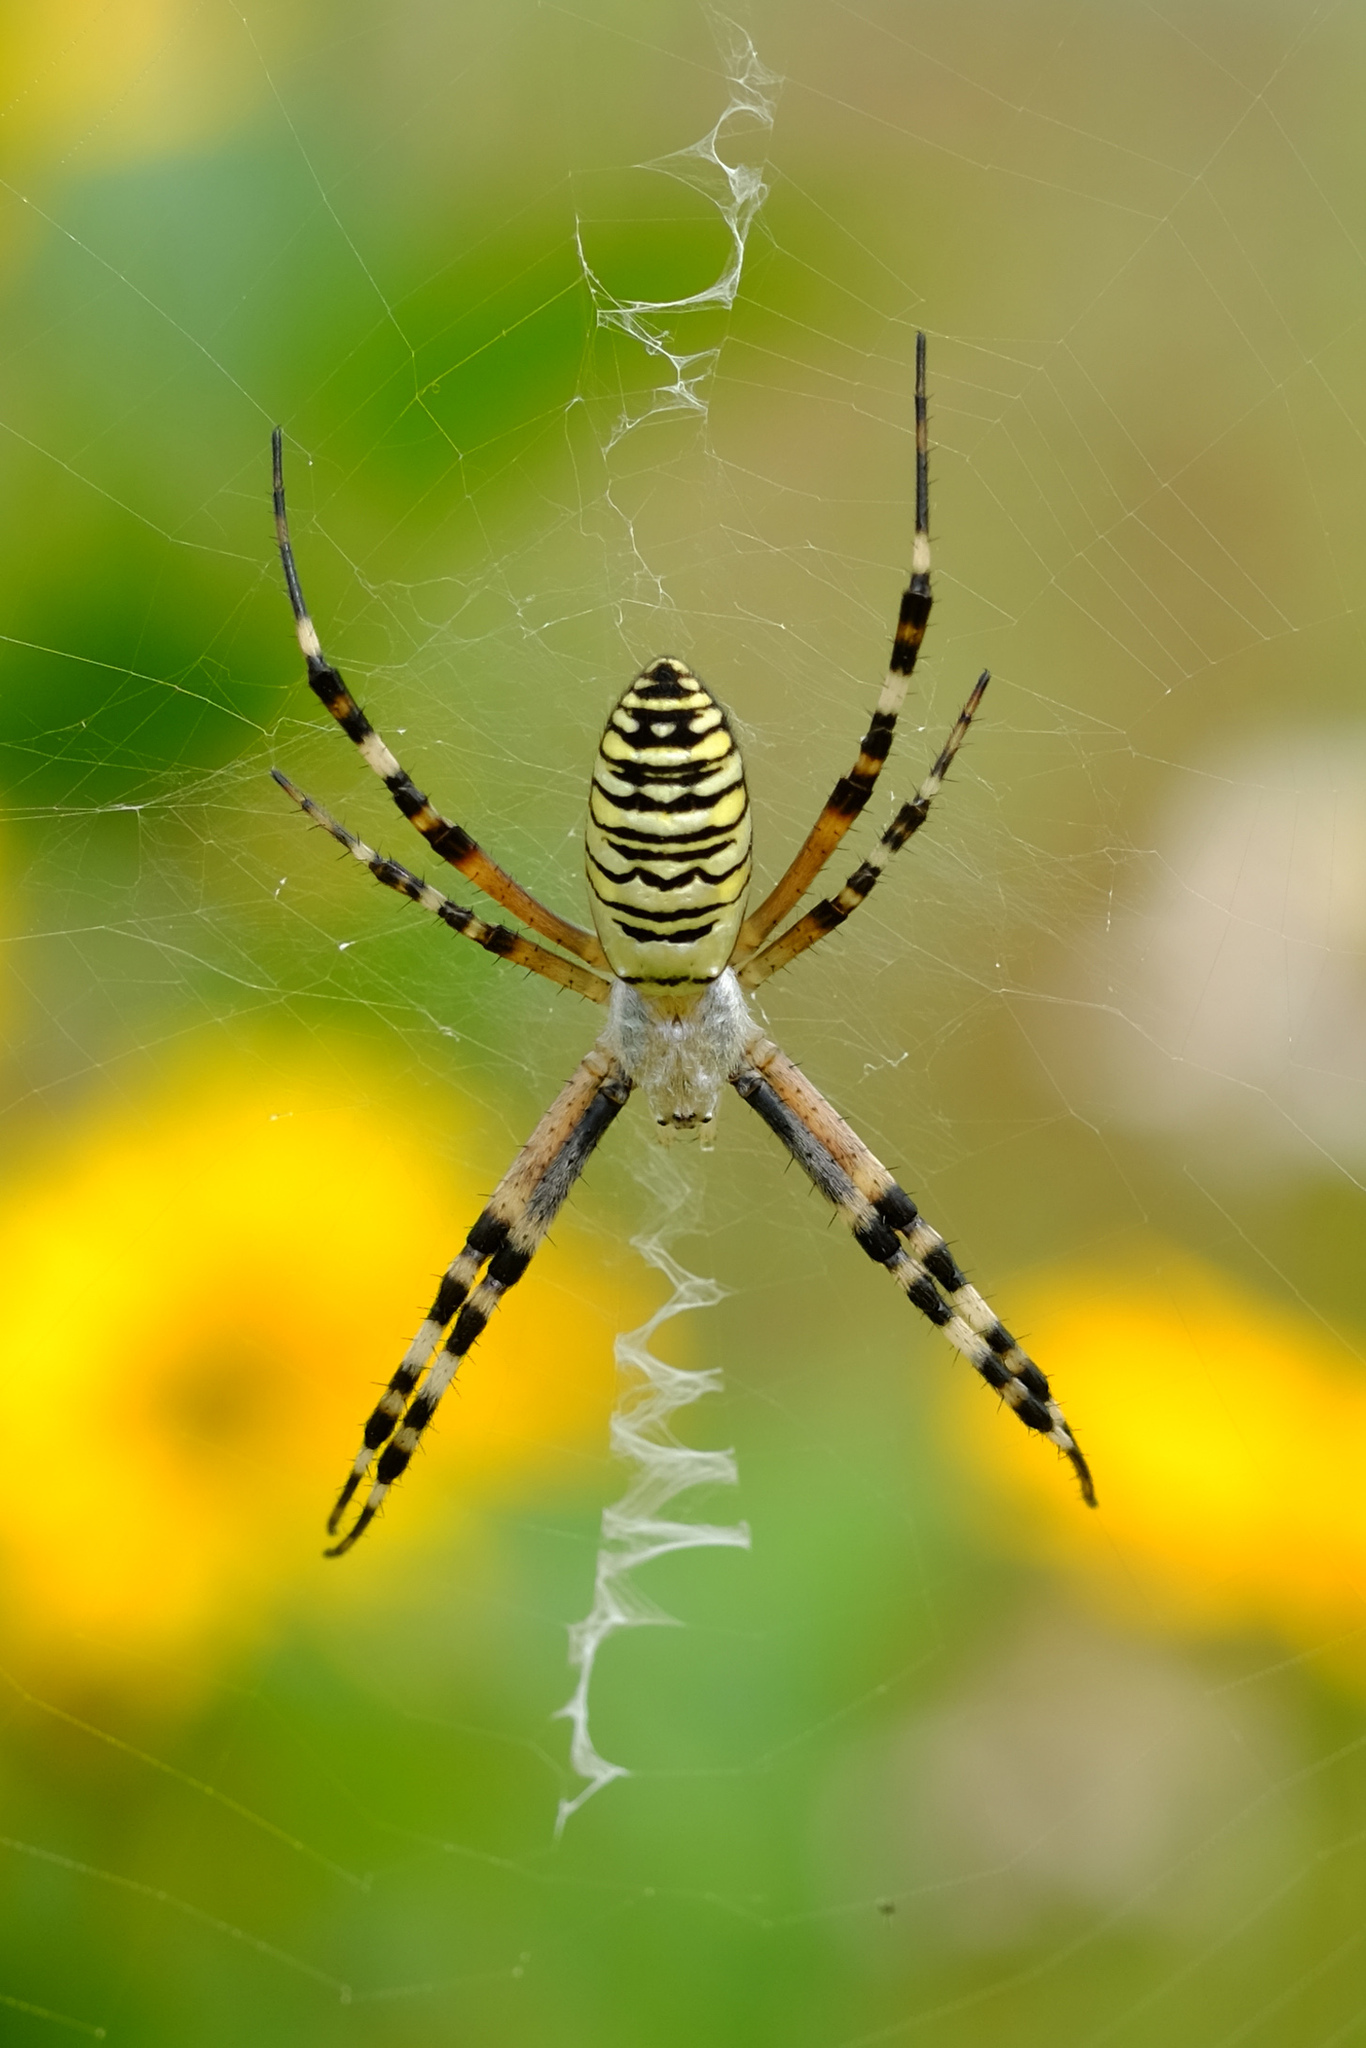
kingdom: Animalia
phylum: Arthropoda
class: Arachnida
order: Araneae
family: Araneidae
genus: Argiope
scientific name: Argiope bruennichi
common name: Wasp spider
